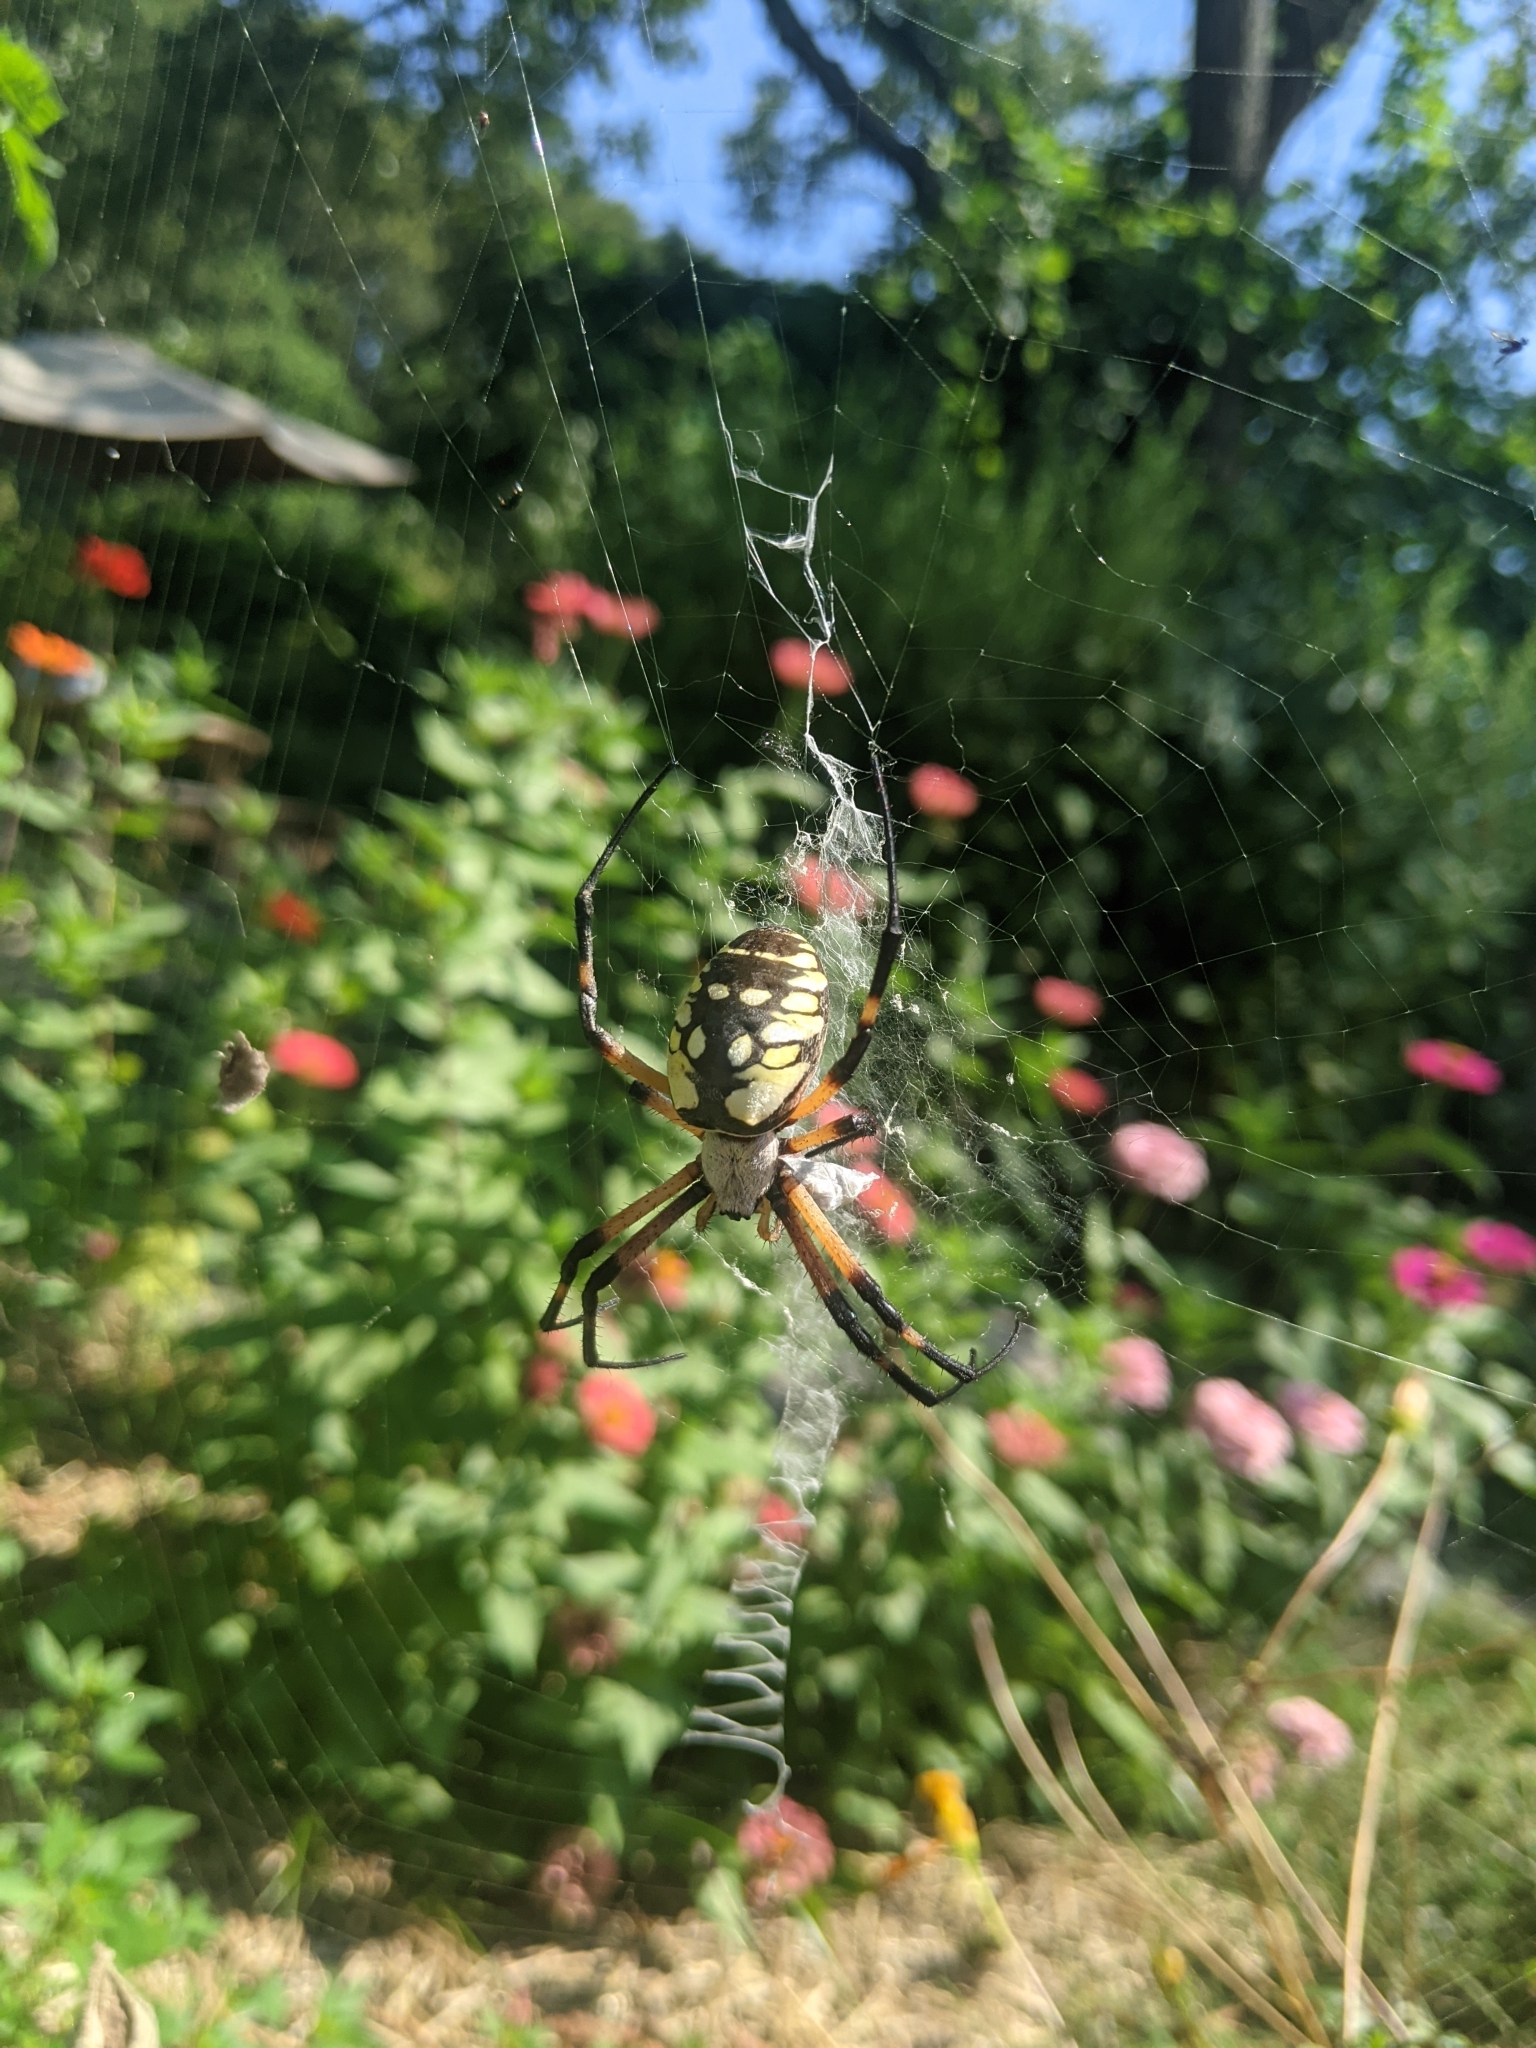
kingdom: Animalia
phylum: Arthropoda
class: Arachnida
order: Araneae
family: Araneidae
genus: Argiope
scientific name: Argiope aurantia
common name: Orb weavers
